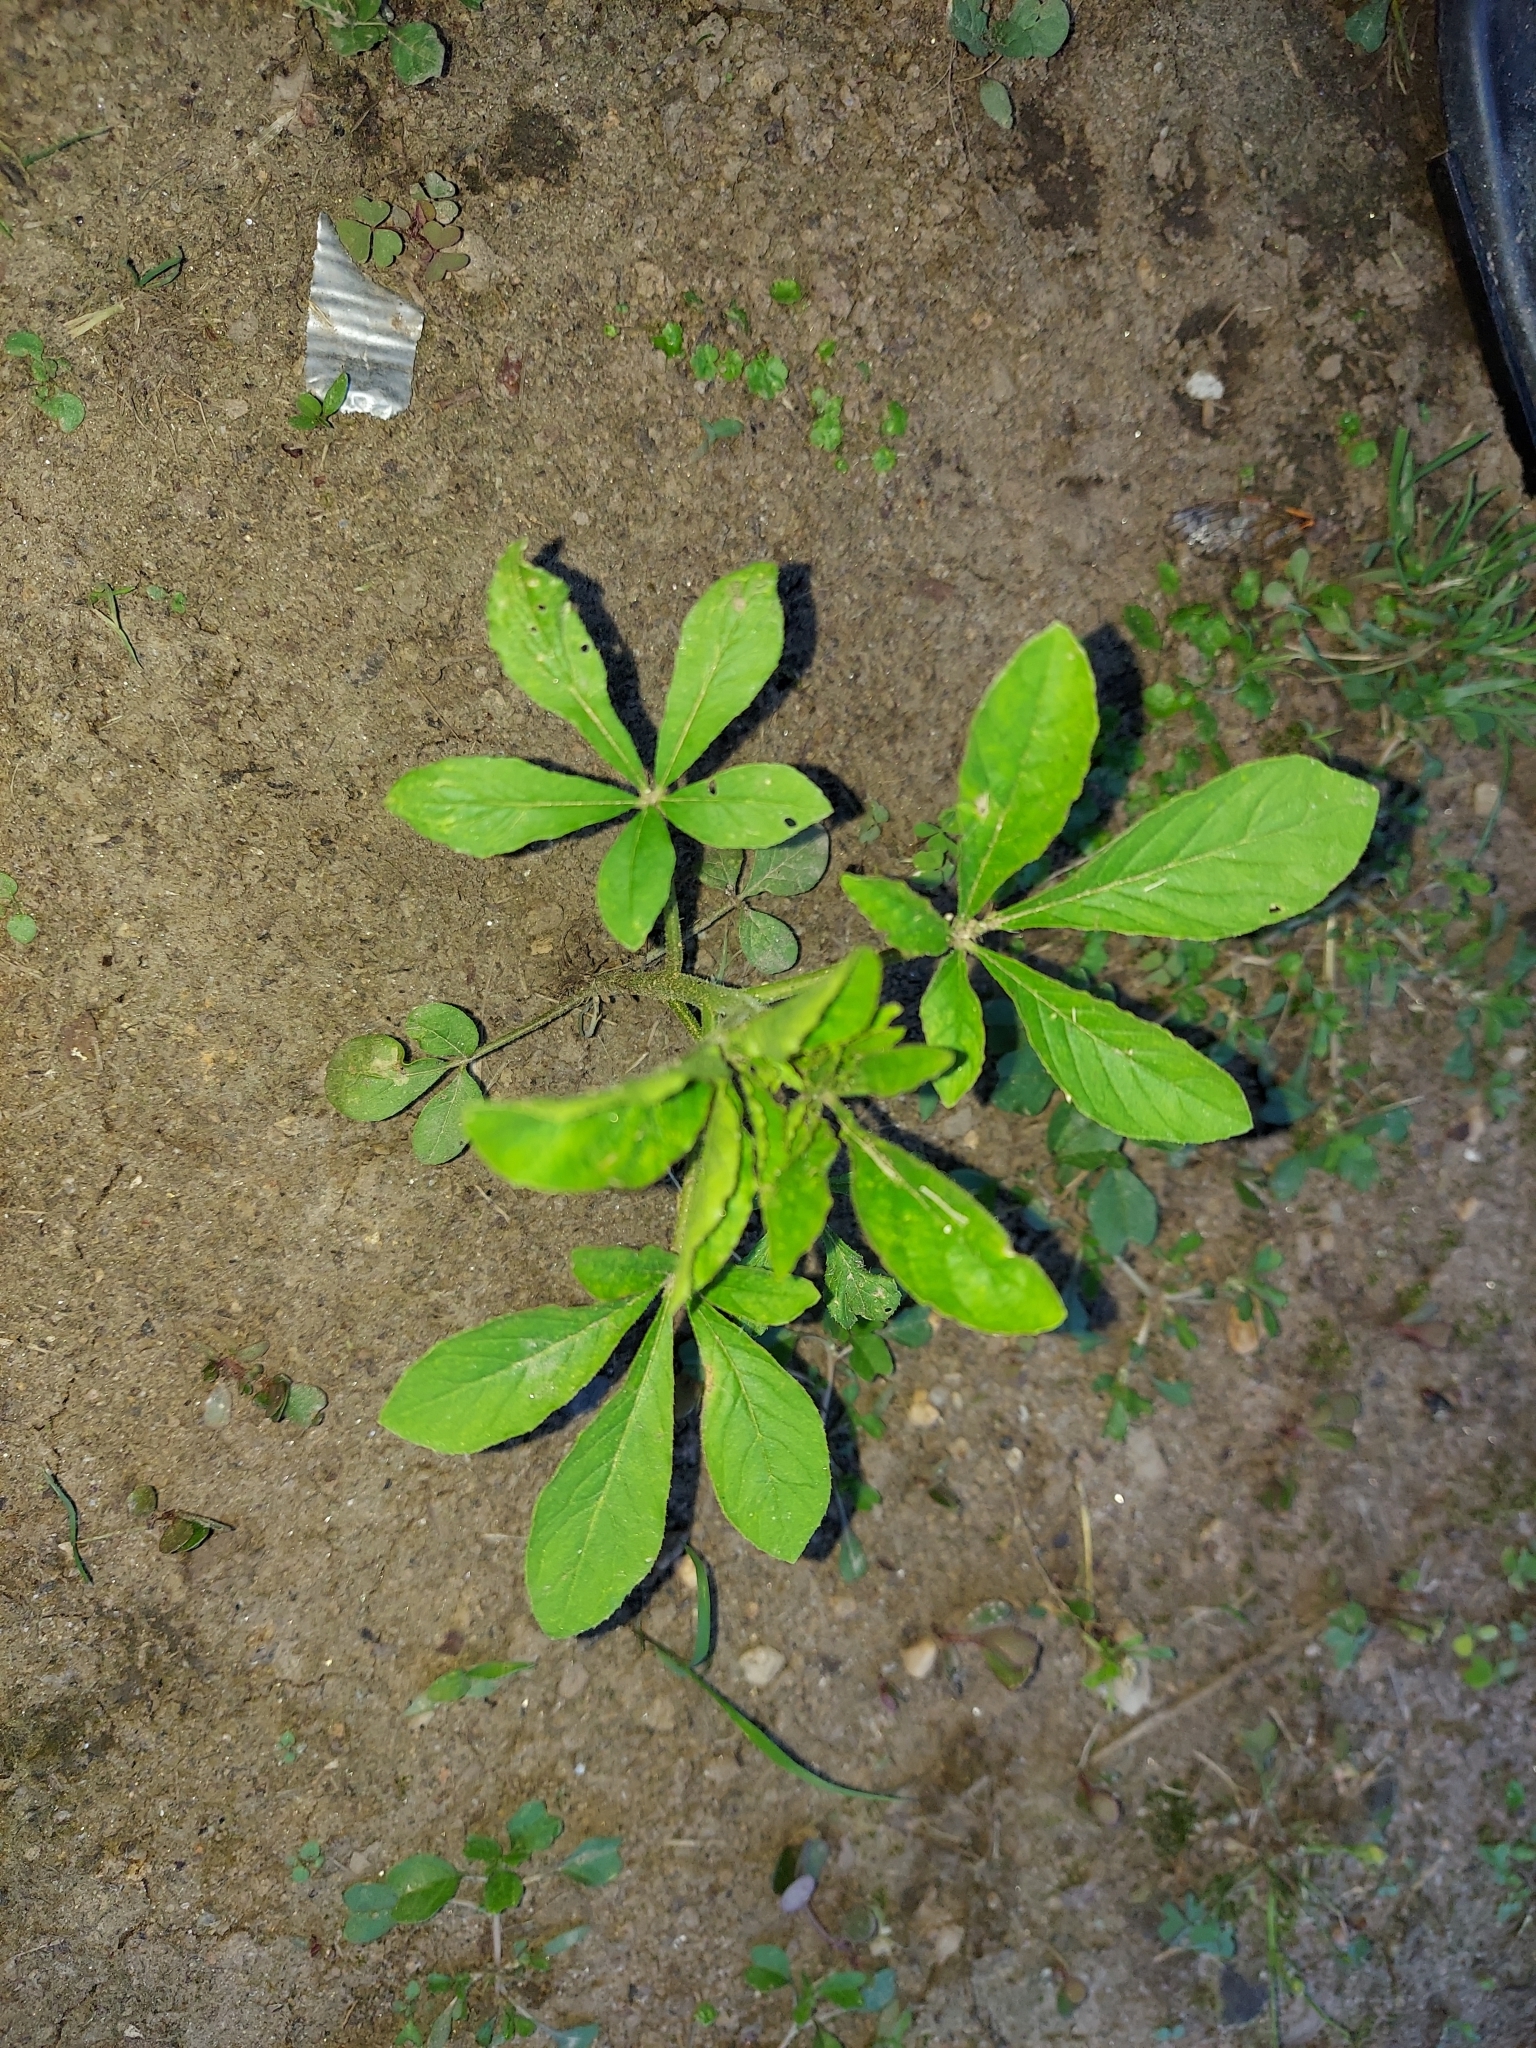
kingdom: Plantae
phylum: Tracheophyta
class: Magnoliopsida
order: Brassicales
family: Cleomaceae
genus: Tarenaya
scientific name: Tarenaya houtteana
